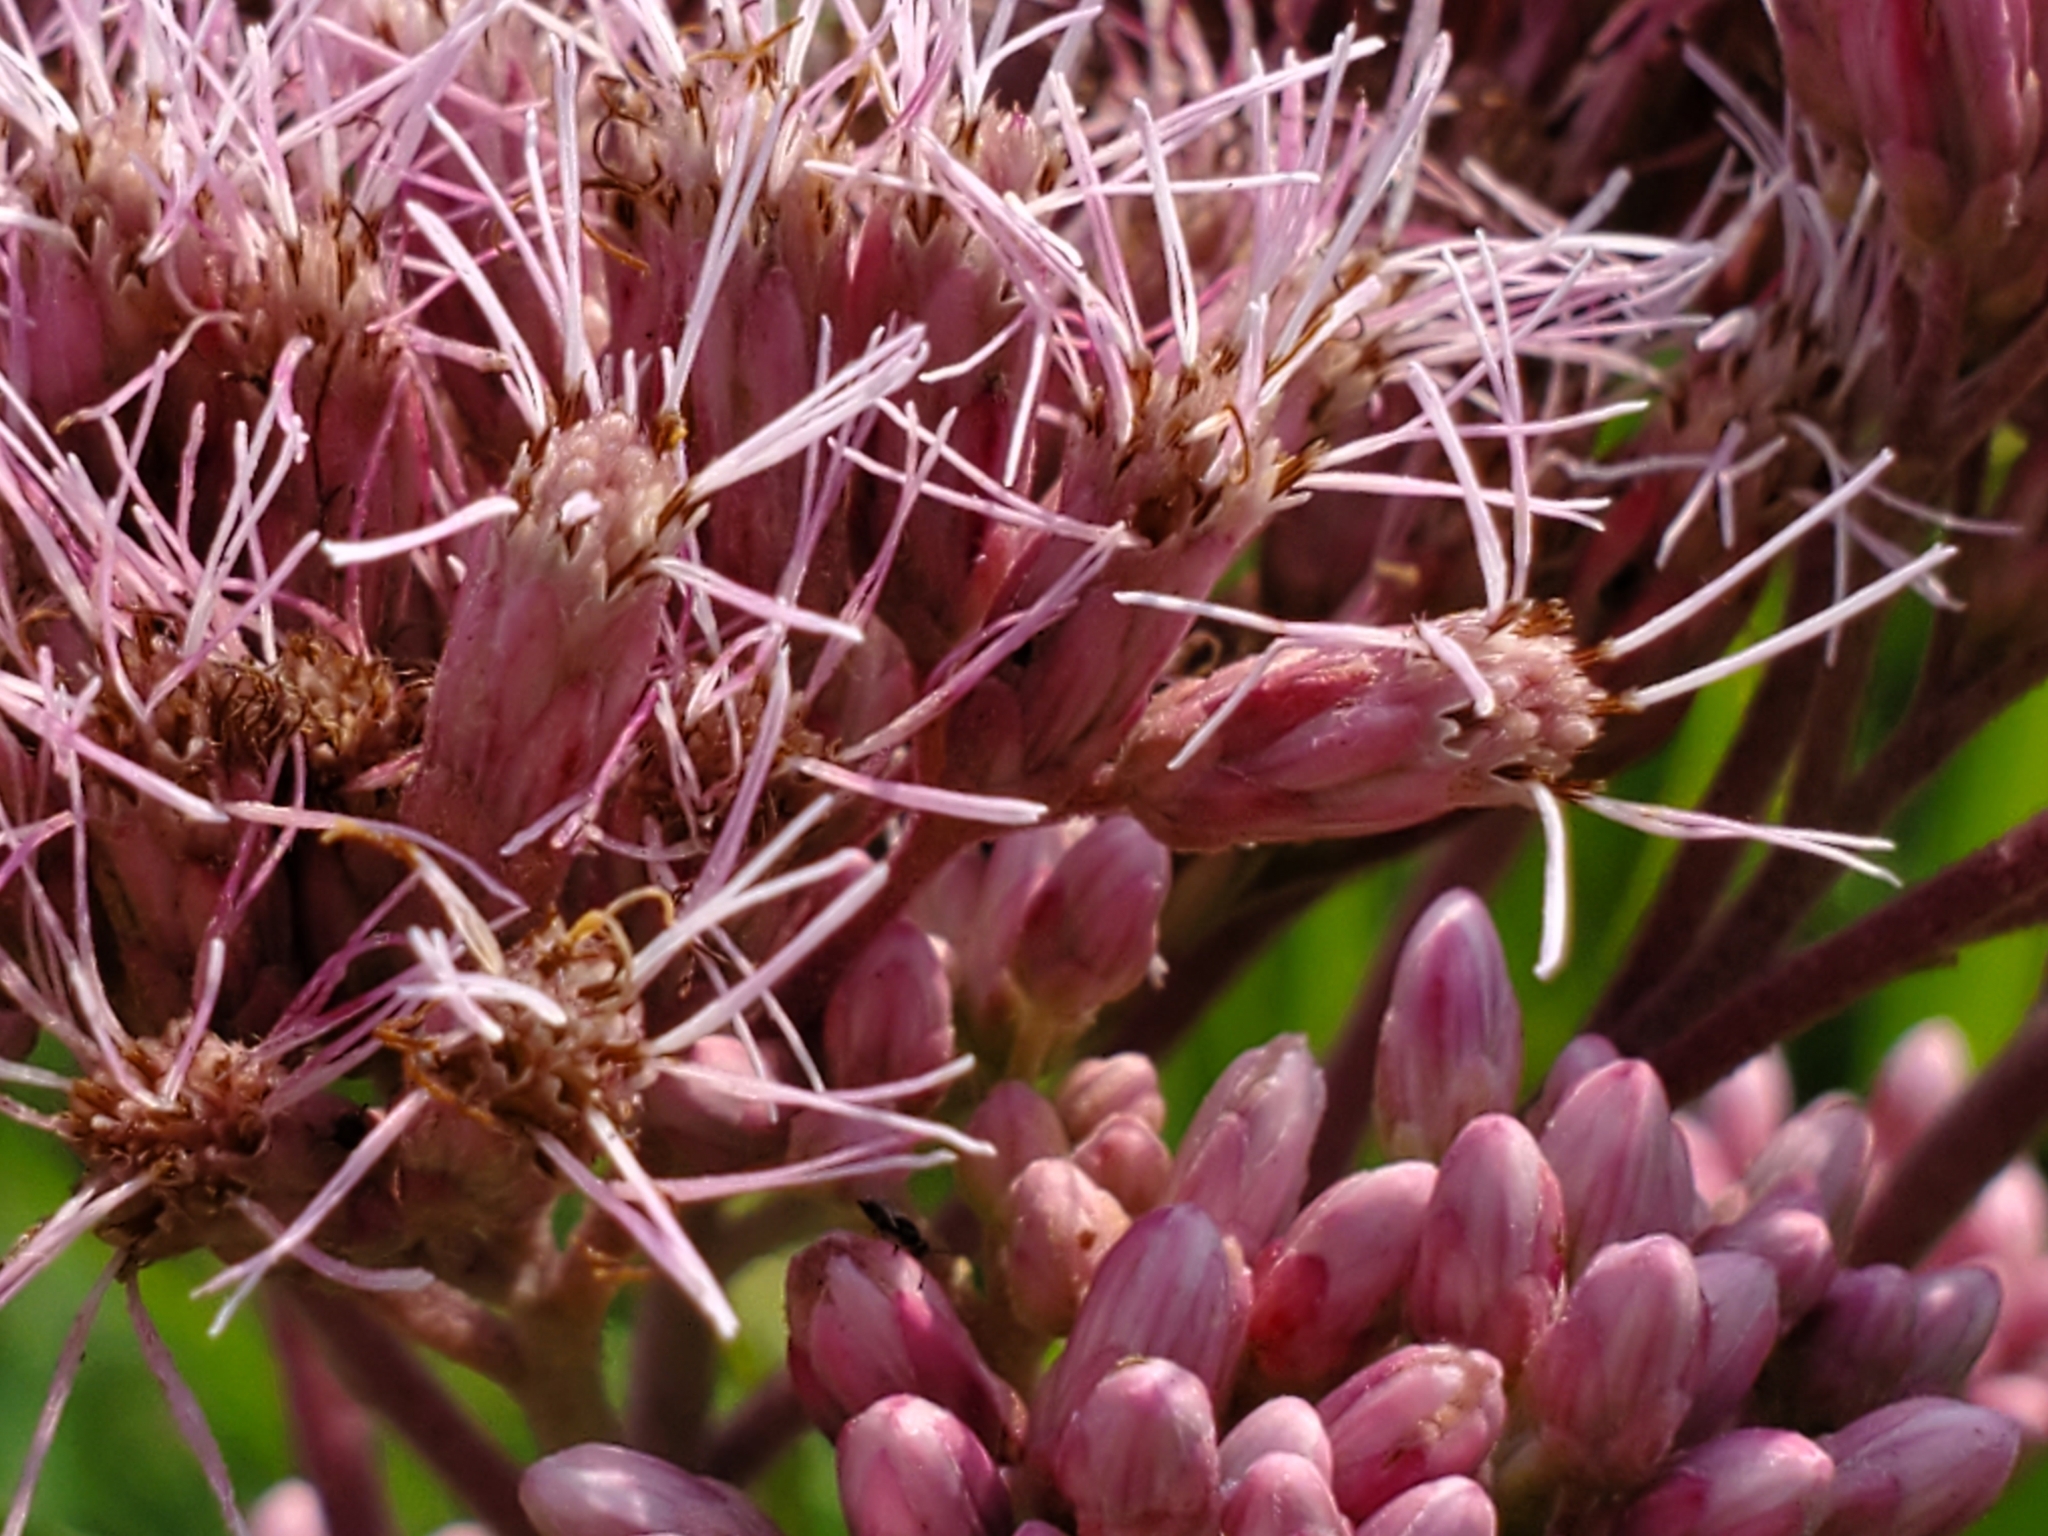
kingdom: Plantae
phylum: Tracheophyta
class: Magnoliopsida
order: Asterales
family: Asteraceae
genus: Eutrochium
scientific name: Eutrochium maculatum
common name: Spotted joe pye weed
